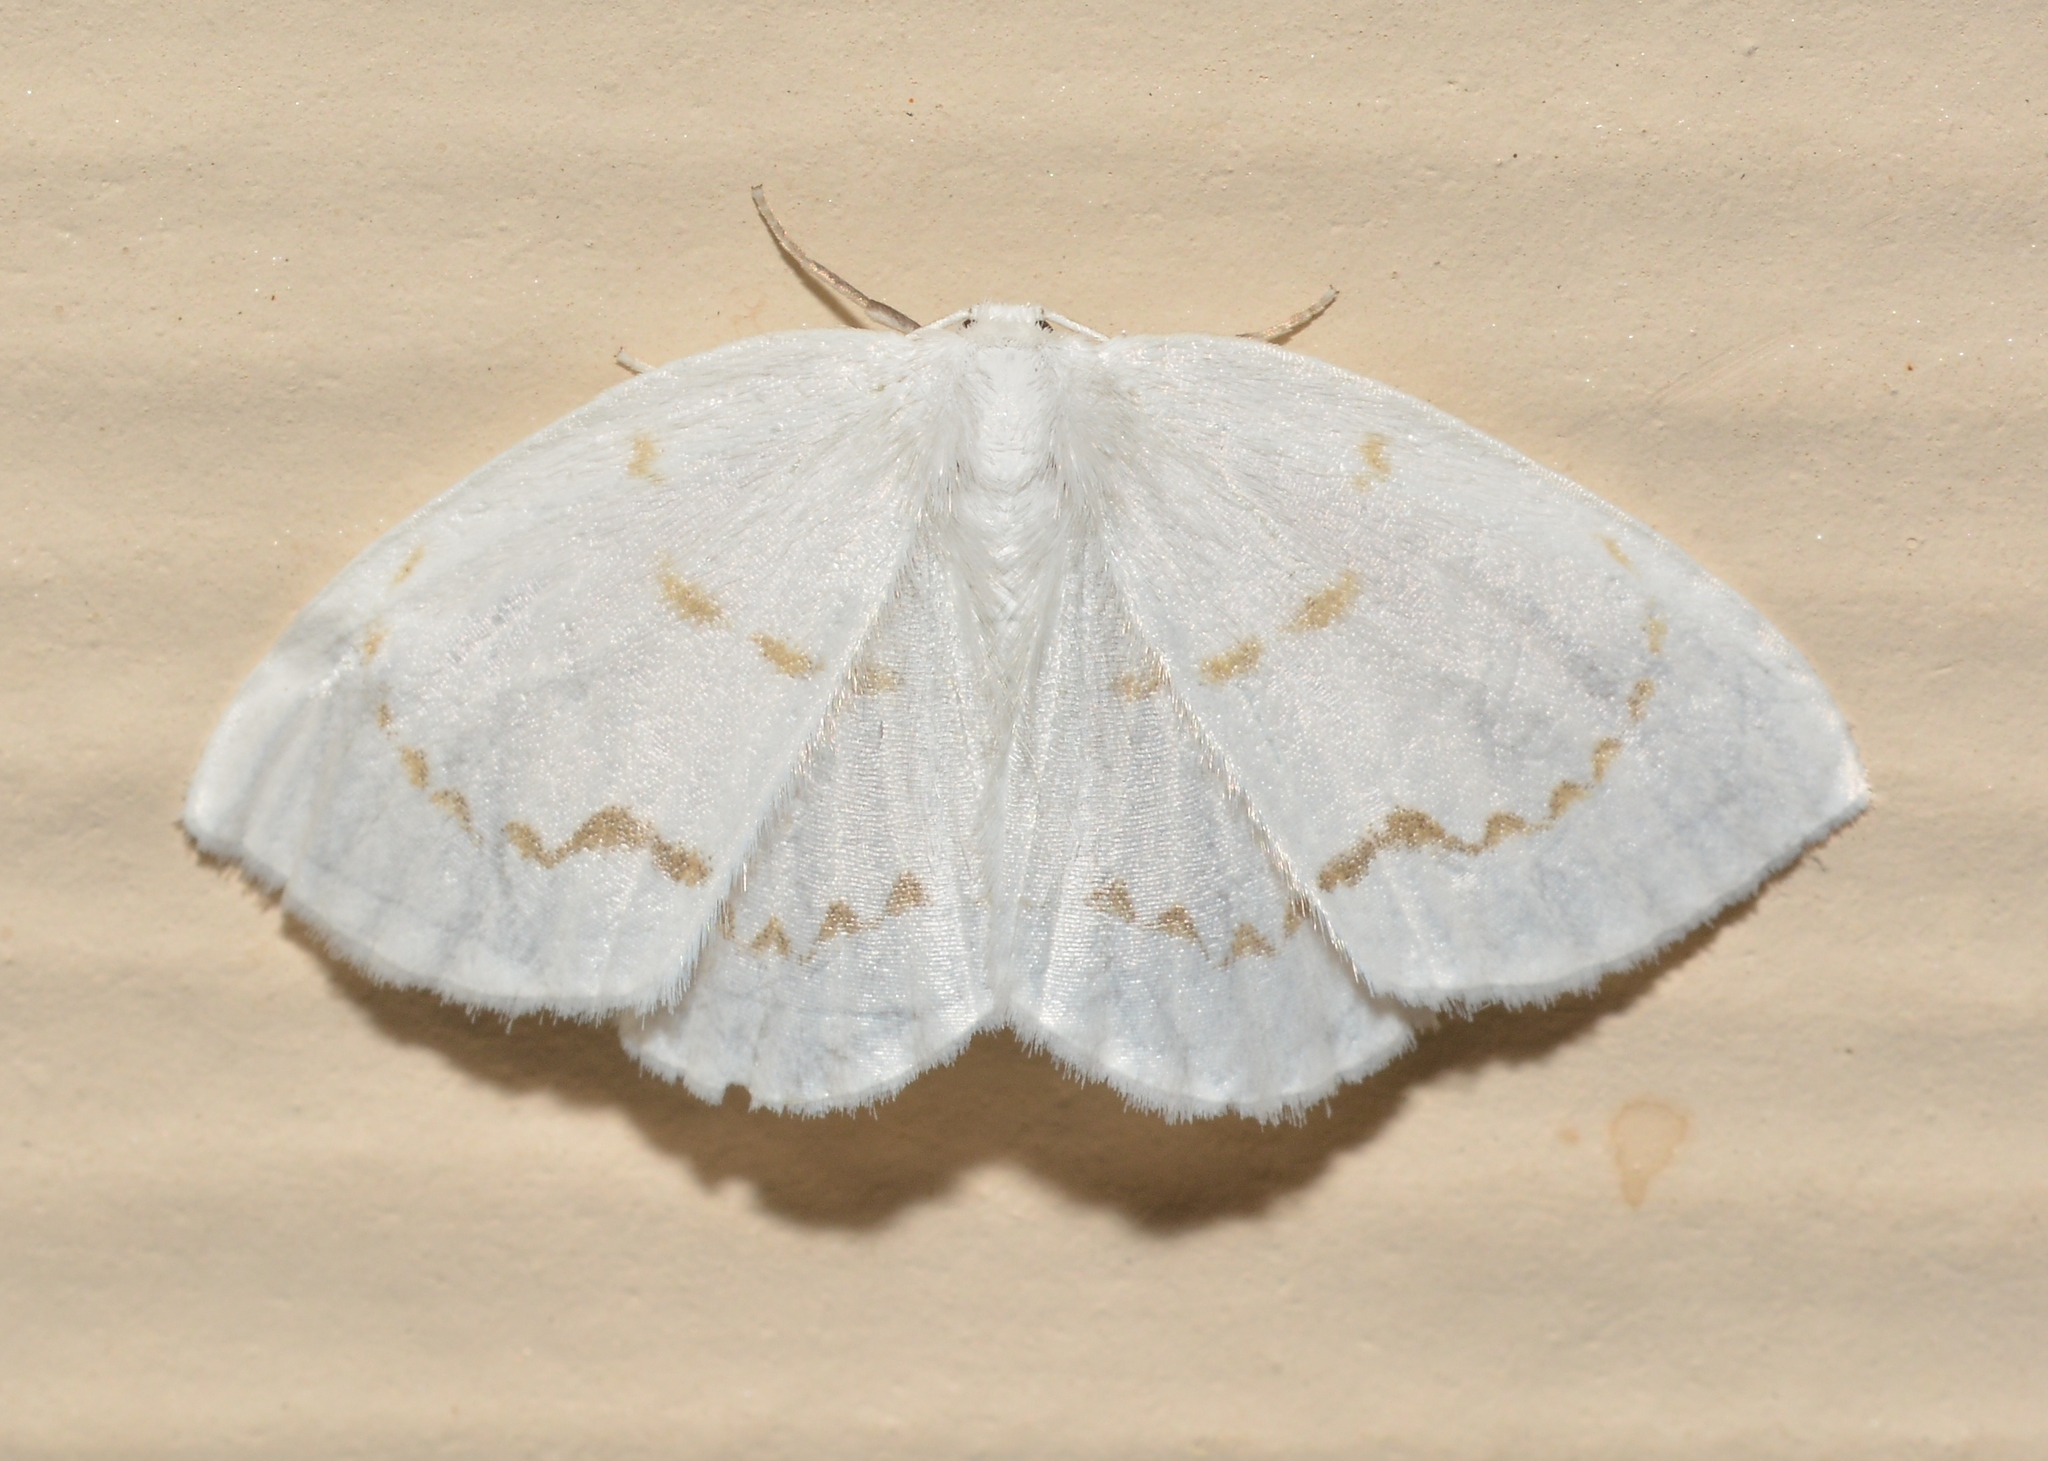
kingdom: Animalia
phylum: Arthropoda
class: Insecta
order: Lepidoptera
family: Drepanidae
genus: Eudeilinia
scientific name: Eudeilinia herminiata
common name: Northern eudeilinea moth
